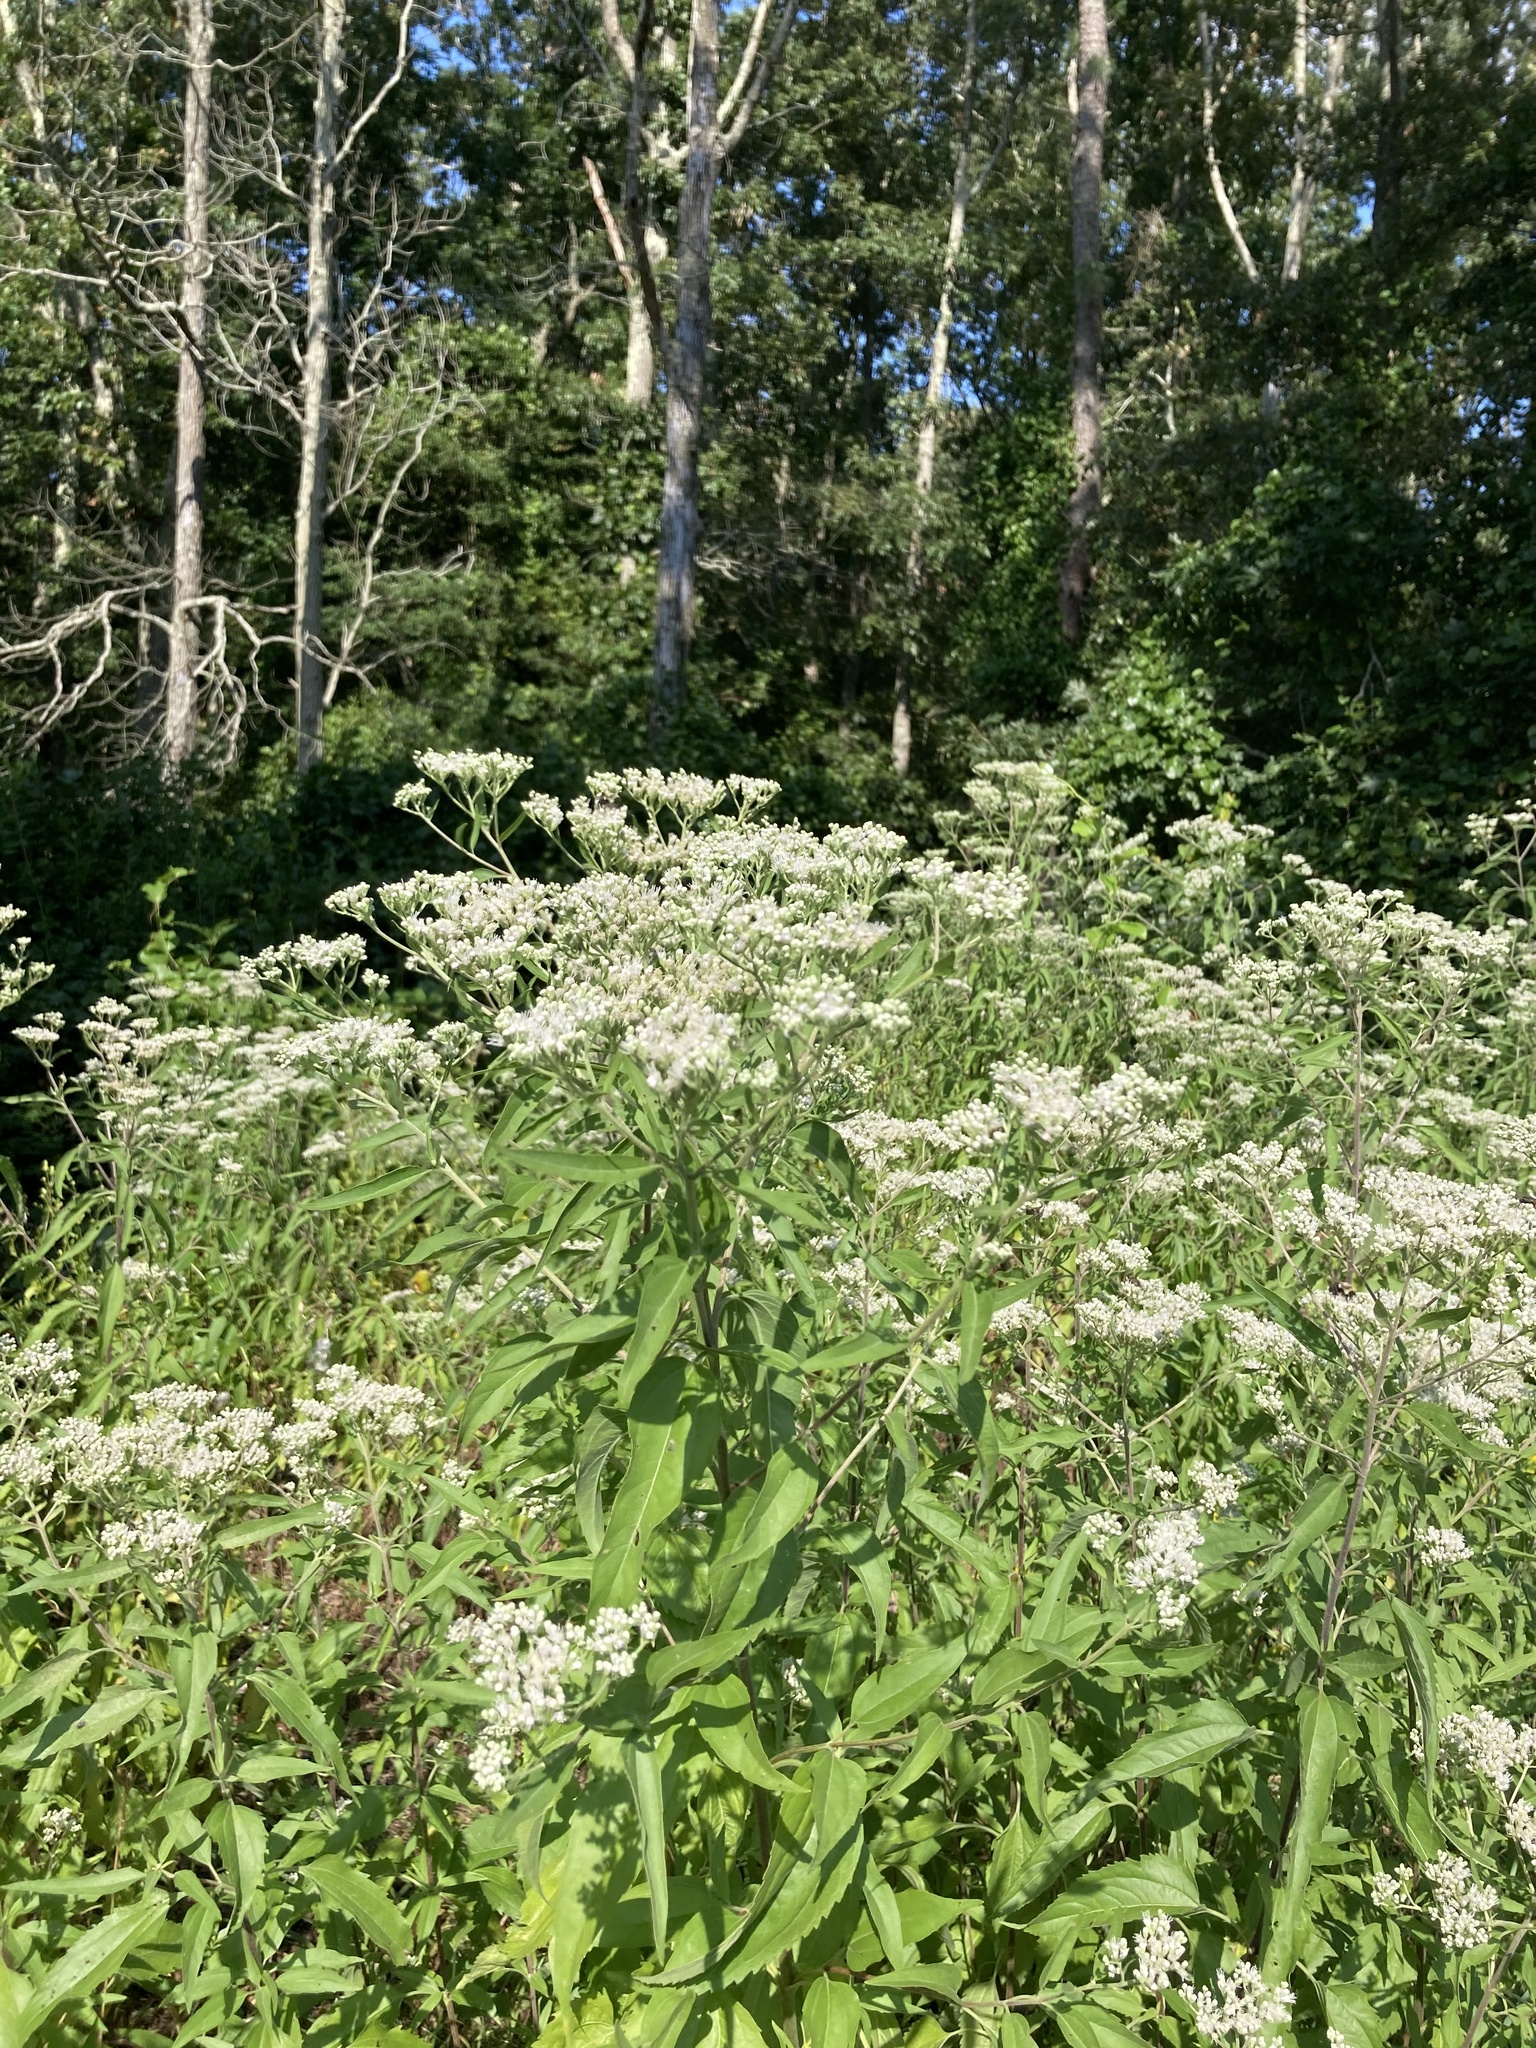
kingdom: Plantae
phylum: Tracheophyta
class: Magnoliopsida
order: Asterales
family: Asteraceae
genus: Eupatorium
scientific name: Eupatorium serotinum
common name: Late boneset
